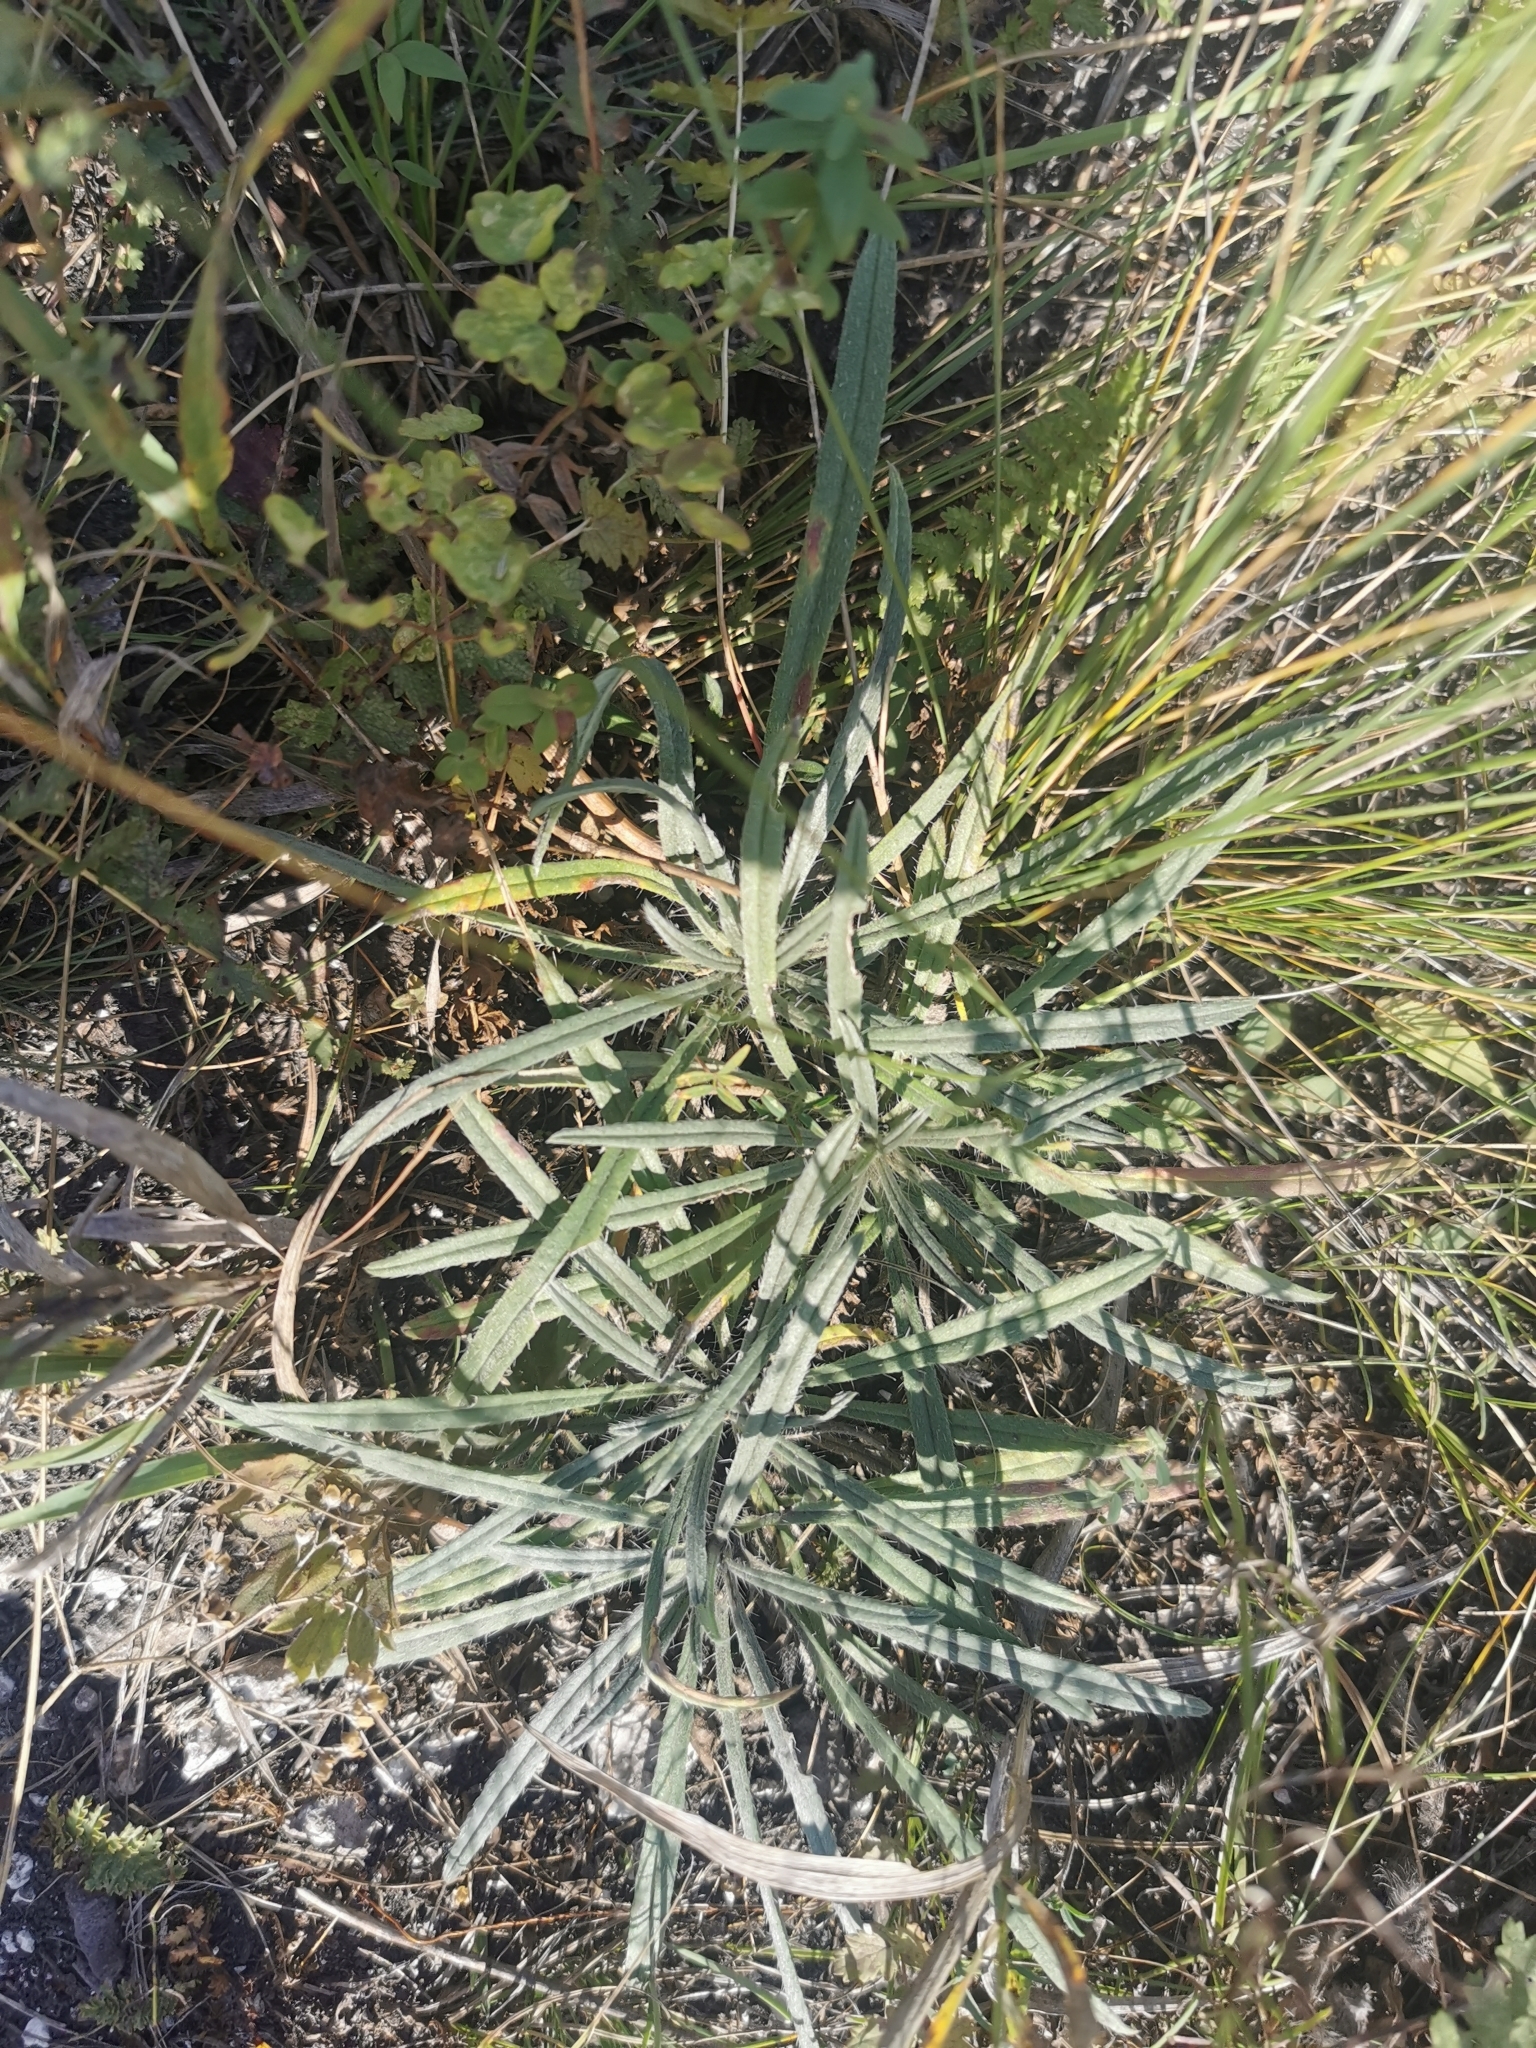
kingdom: Plantae
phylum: Tracheophyta
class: Magnoliopsida
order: Boraginales
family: Boraginaceae
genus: Onosma
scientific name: Onosma simplicissima
